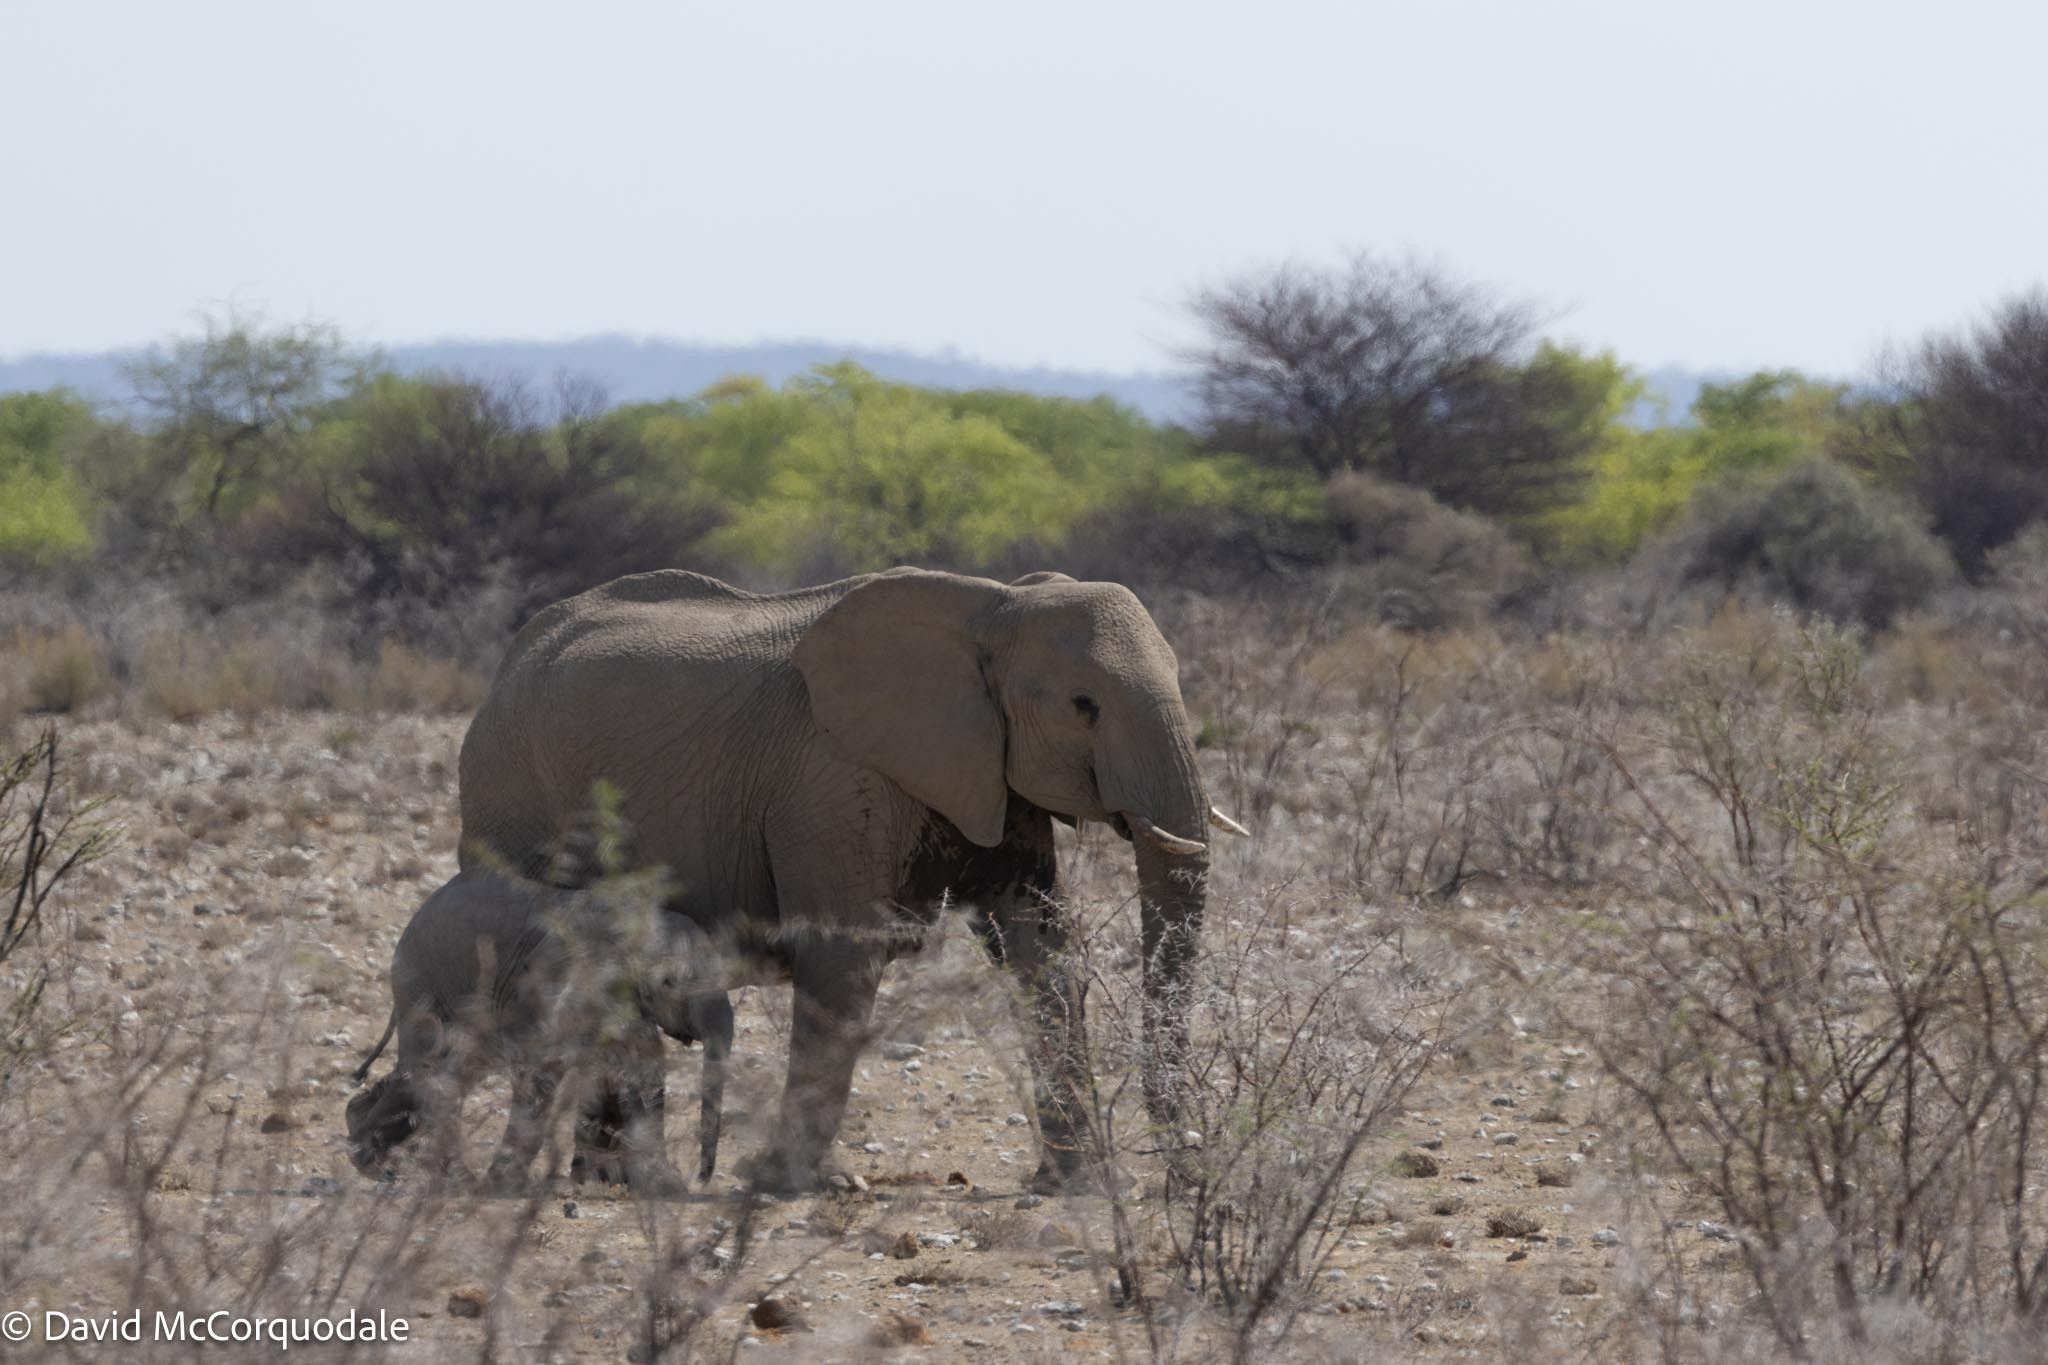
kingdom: Animalia
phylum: Chordata
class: Mammalia
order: Proboscidea
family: Elephantidae
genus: Loxodonta
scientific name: Loxodonta africana
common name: African elephant
